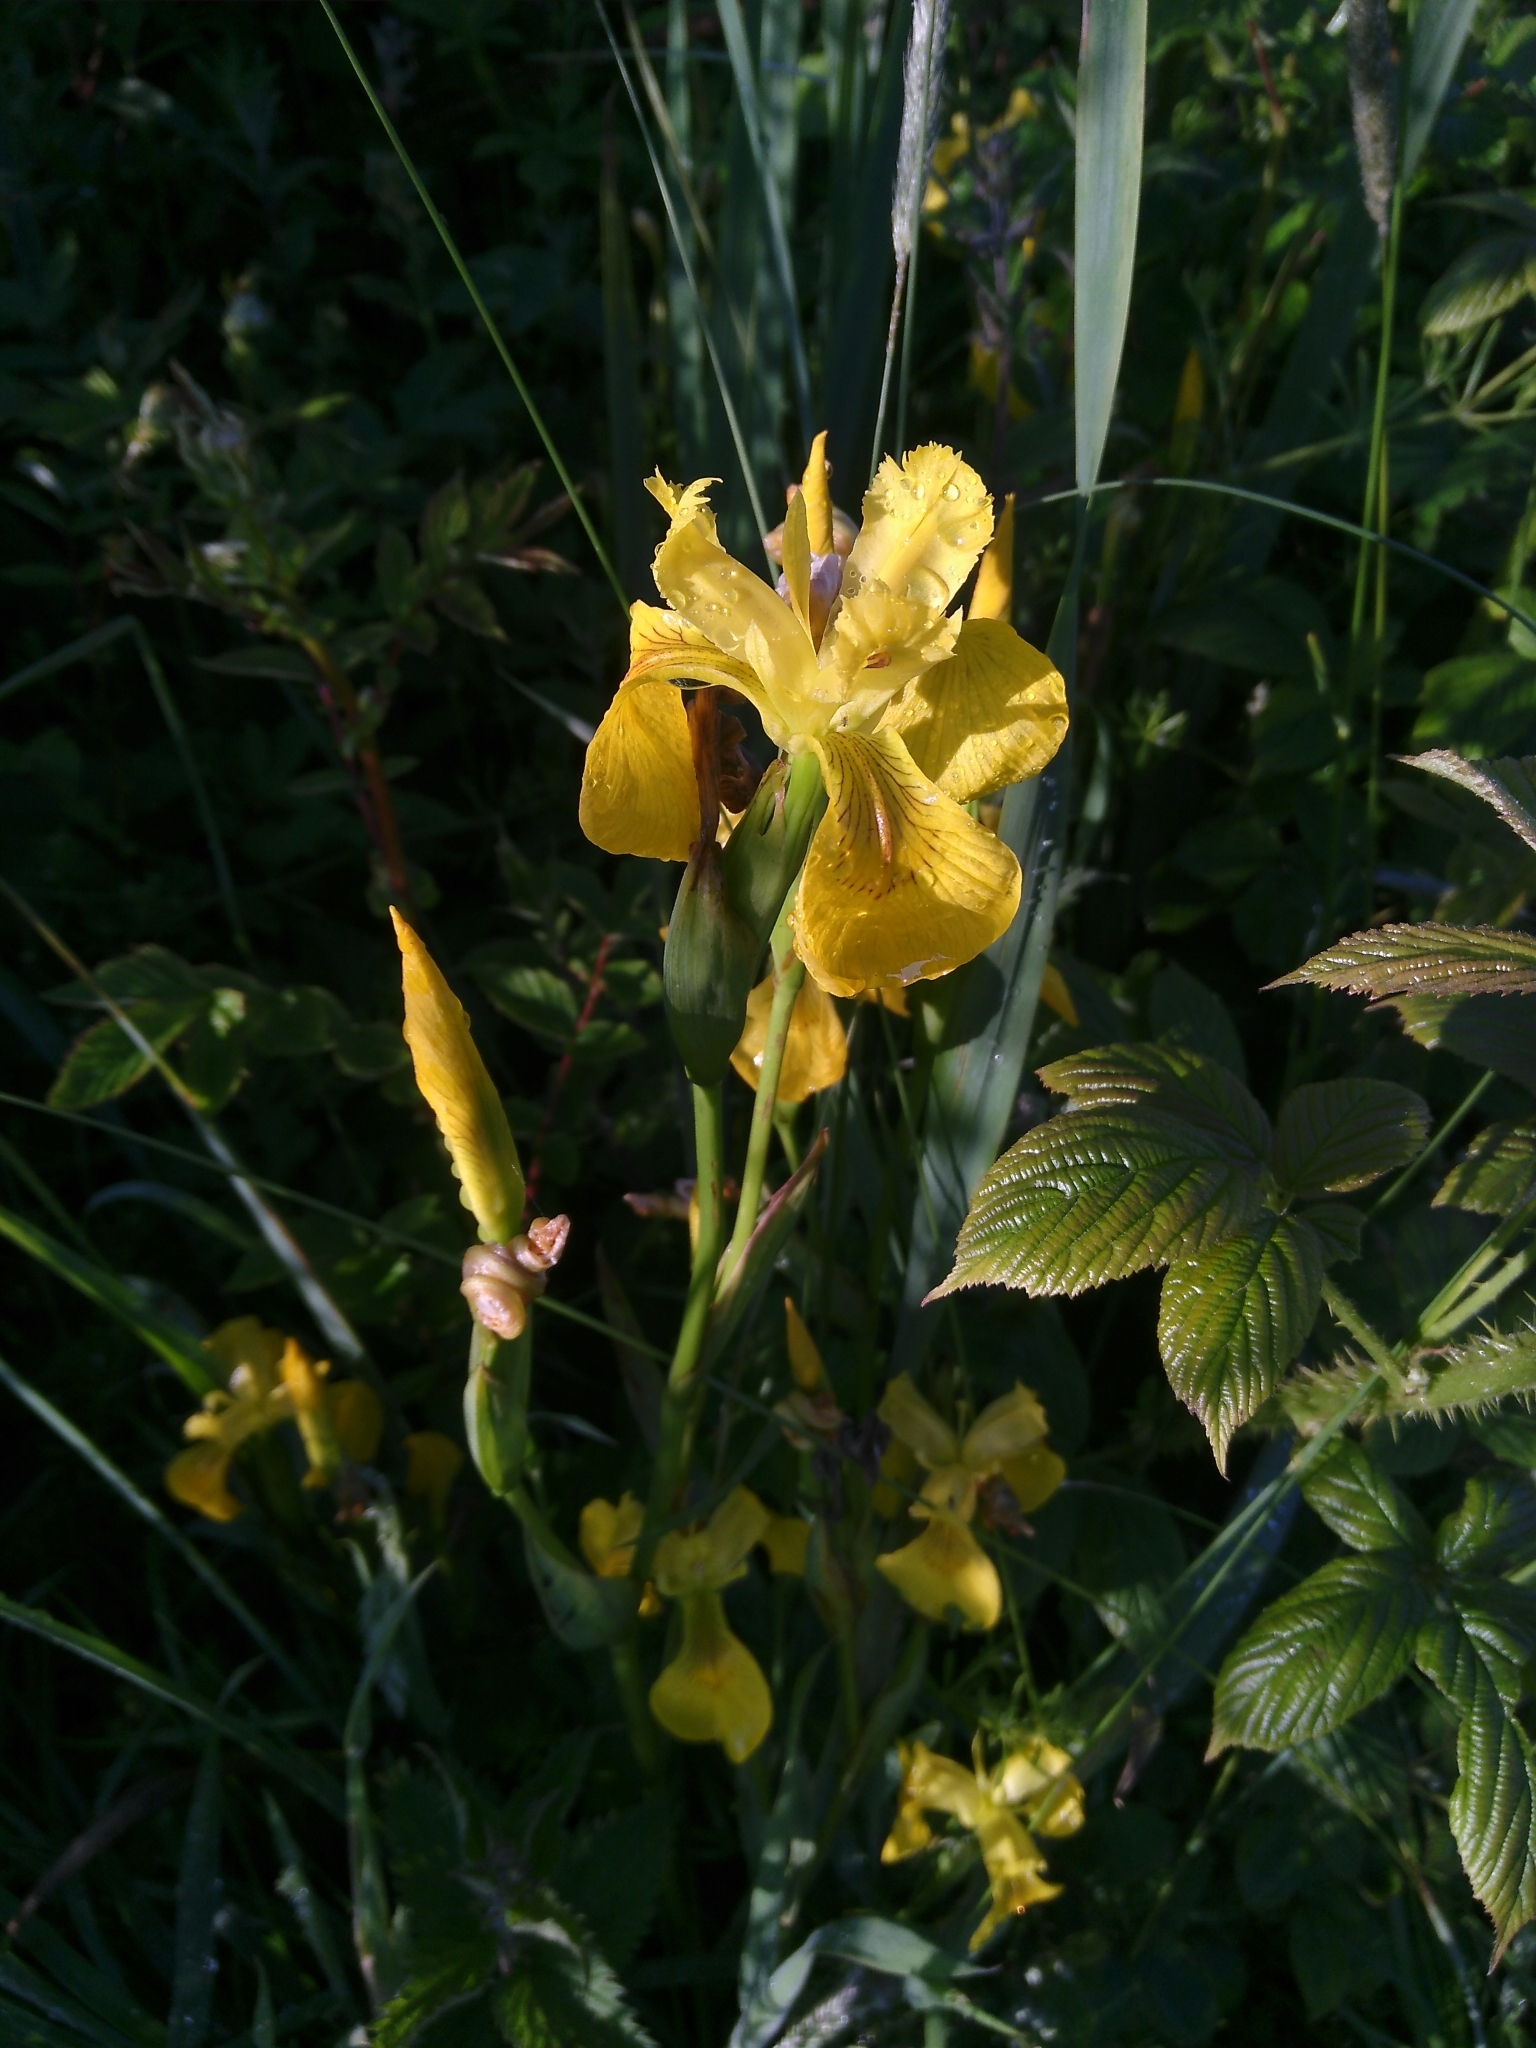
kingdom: Plantae
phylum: Tracheophyta
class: Liliopsida
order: Asparagales
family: Iridaceae
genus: Iris
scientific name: Iris pseudacorus
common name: Yellow flag
